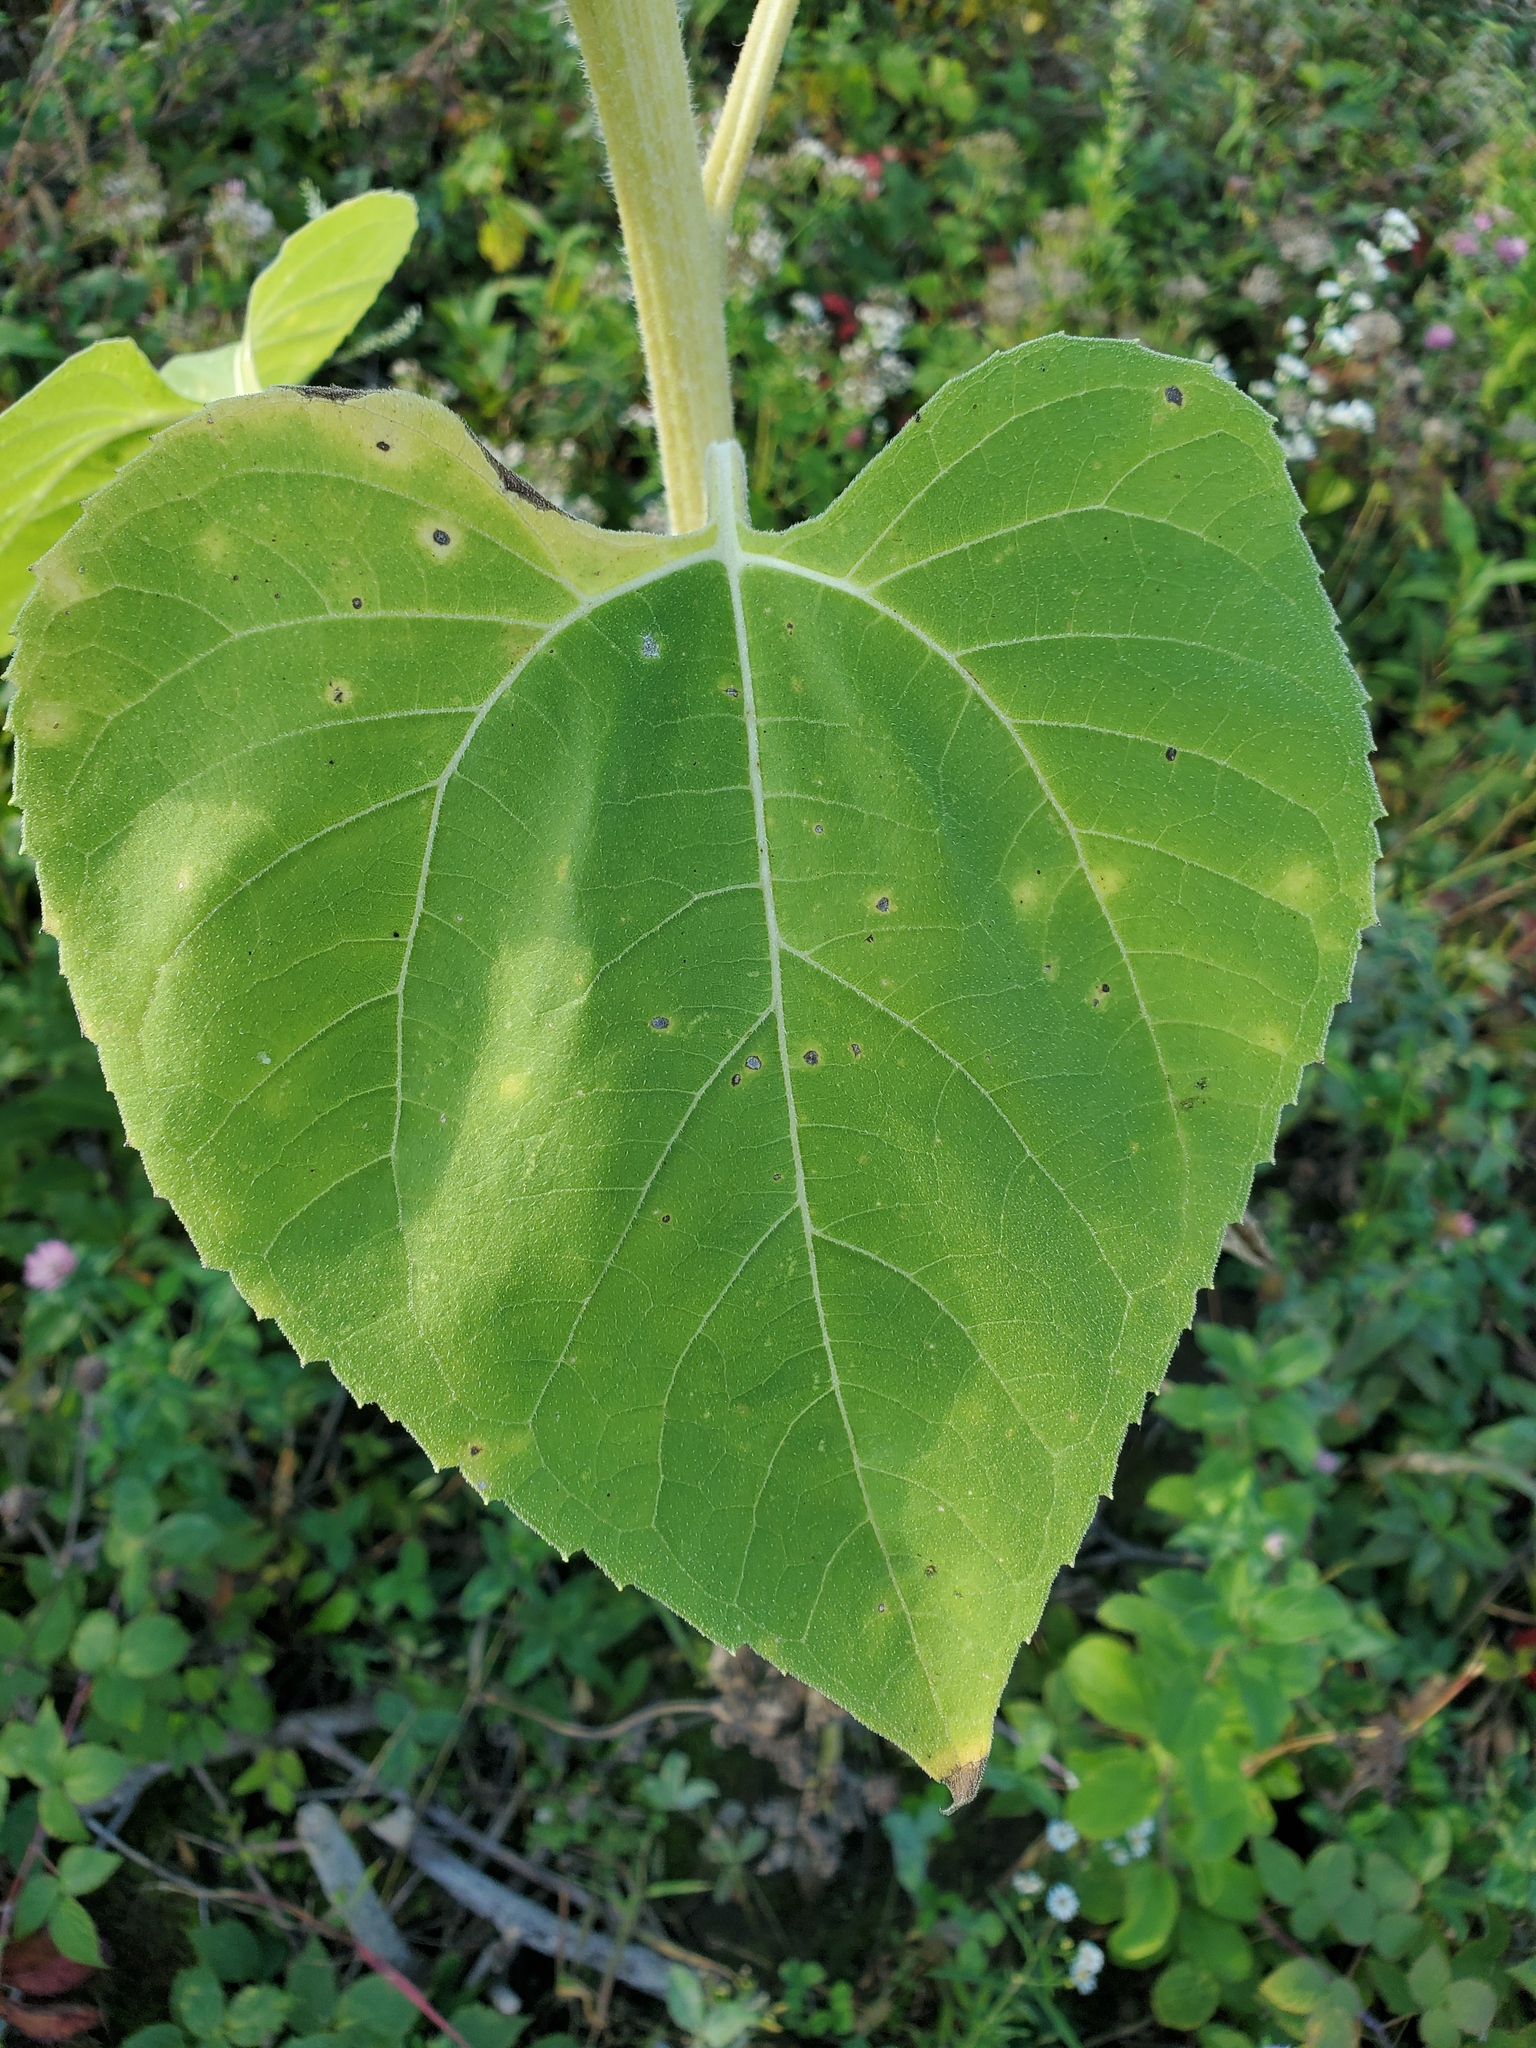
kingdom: Plantae
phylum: Tracheophyta
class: Magnoliopsida
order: Asterales
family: Asteraceae
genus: Helianthus
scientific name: Helianthus annuus
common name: Sunflower
